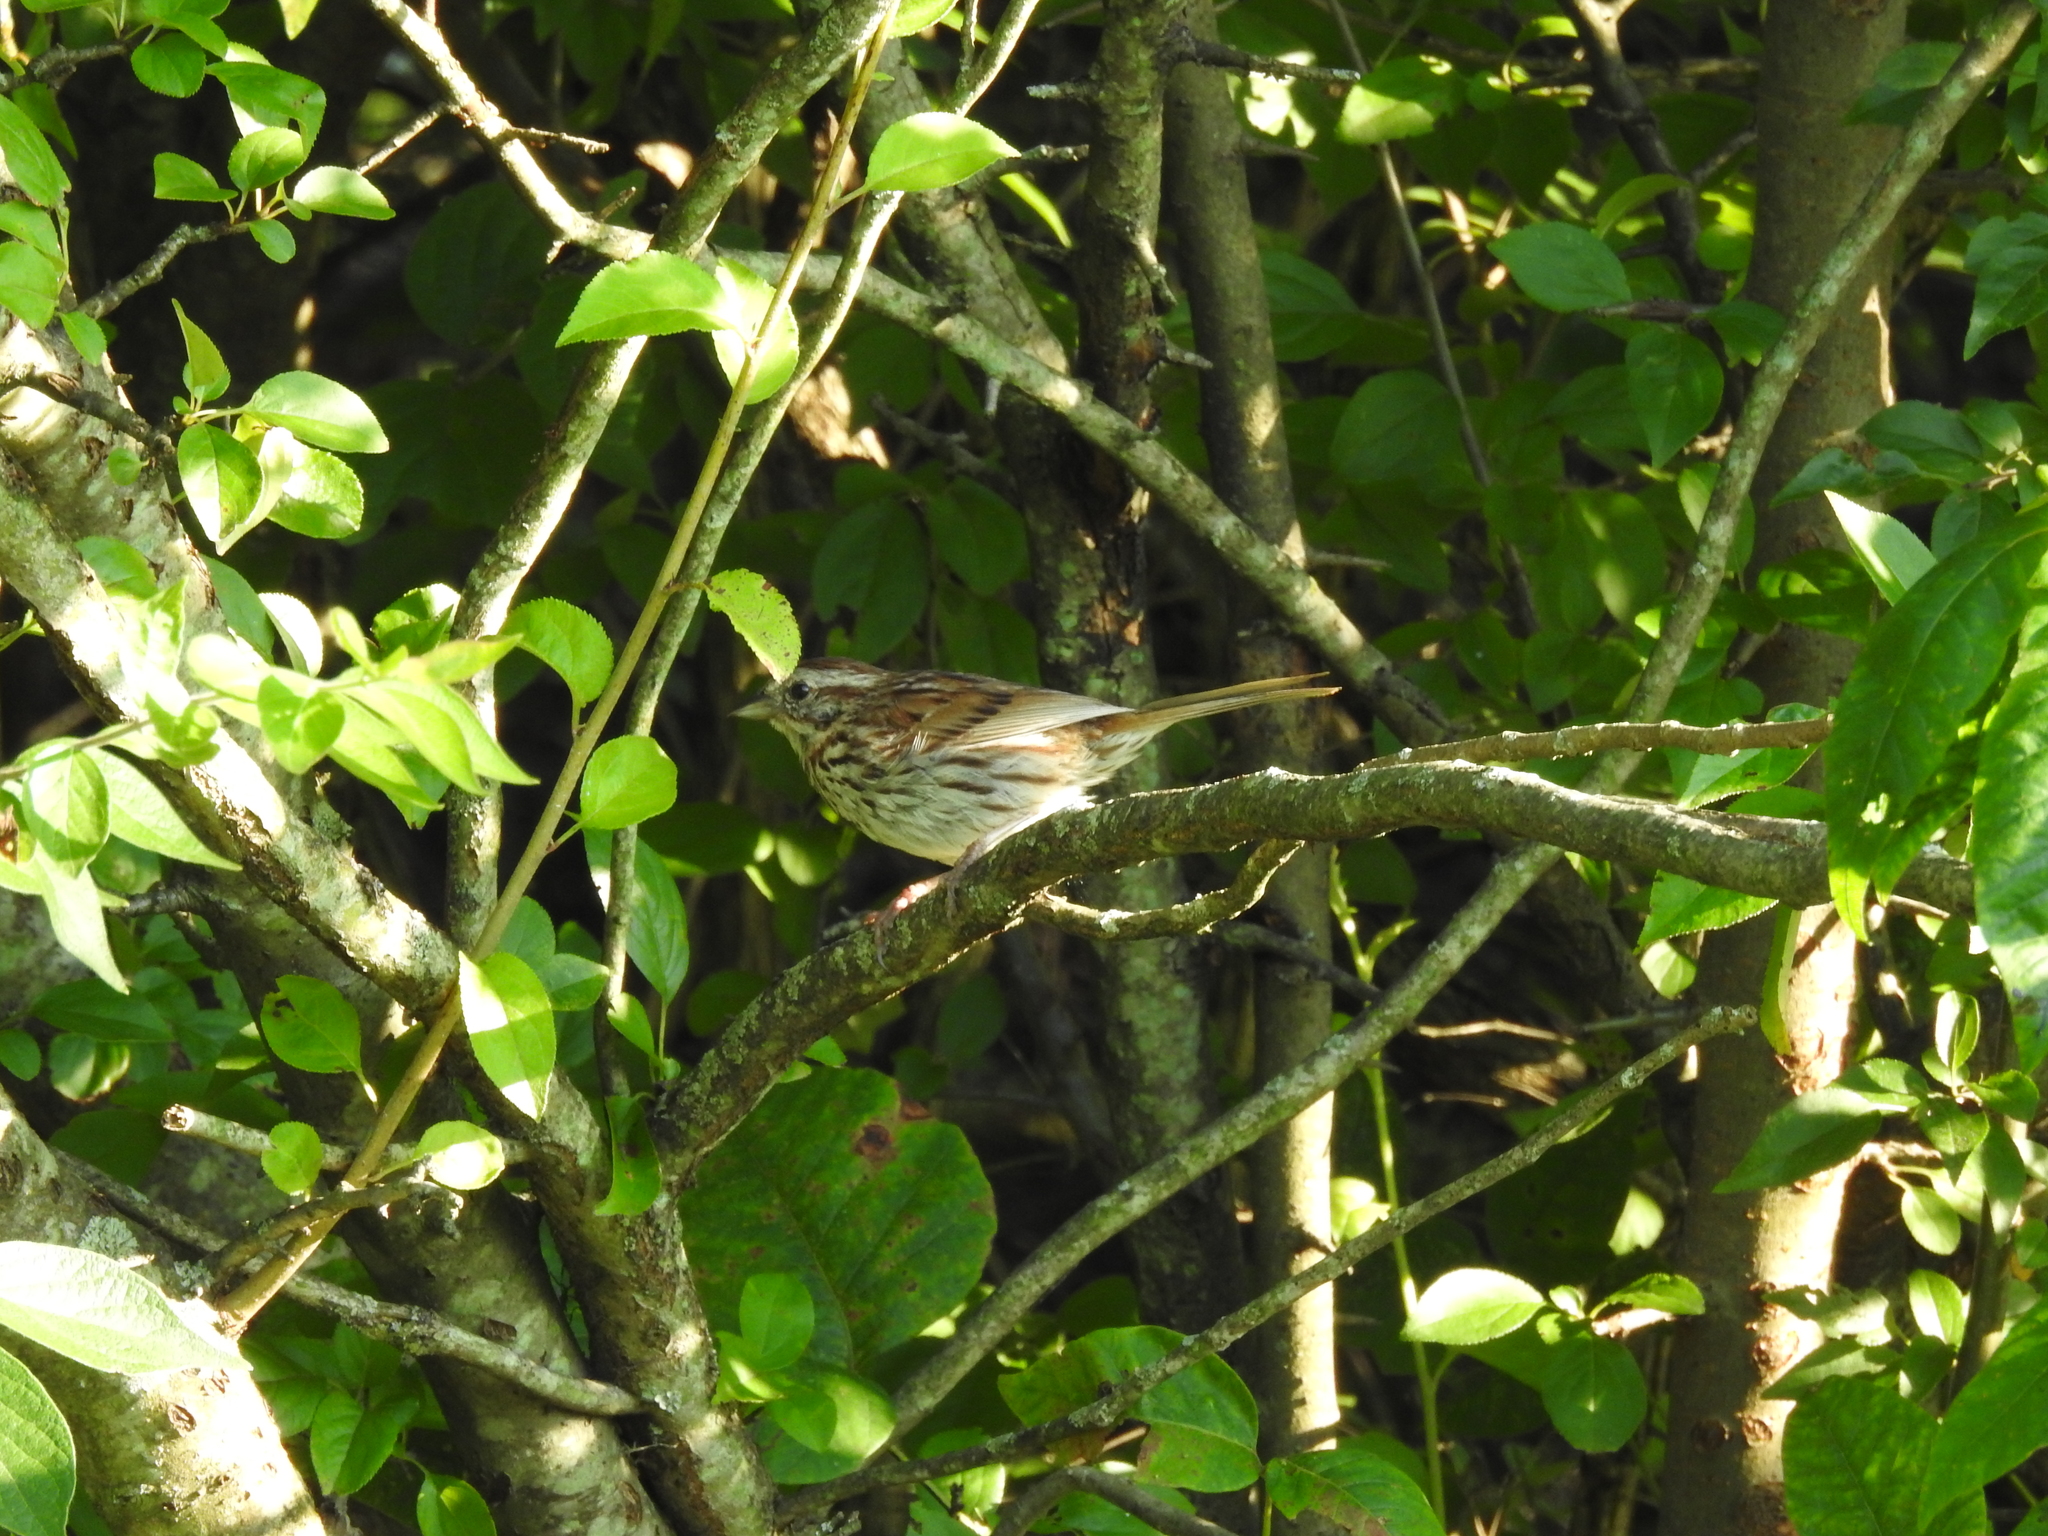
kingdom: Animalia
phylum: Chordata
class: Aves
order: Passeriformes
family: Passerellidae
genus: Melospiza
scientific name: Melospiza melodia
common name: Song sparrow
